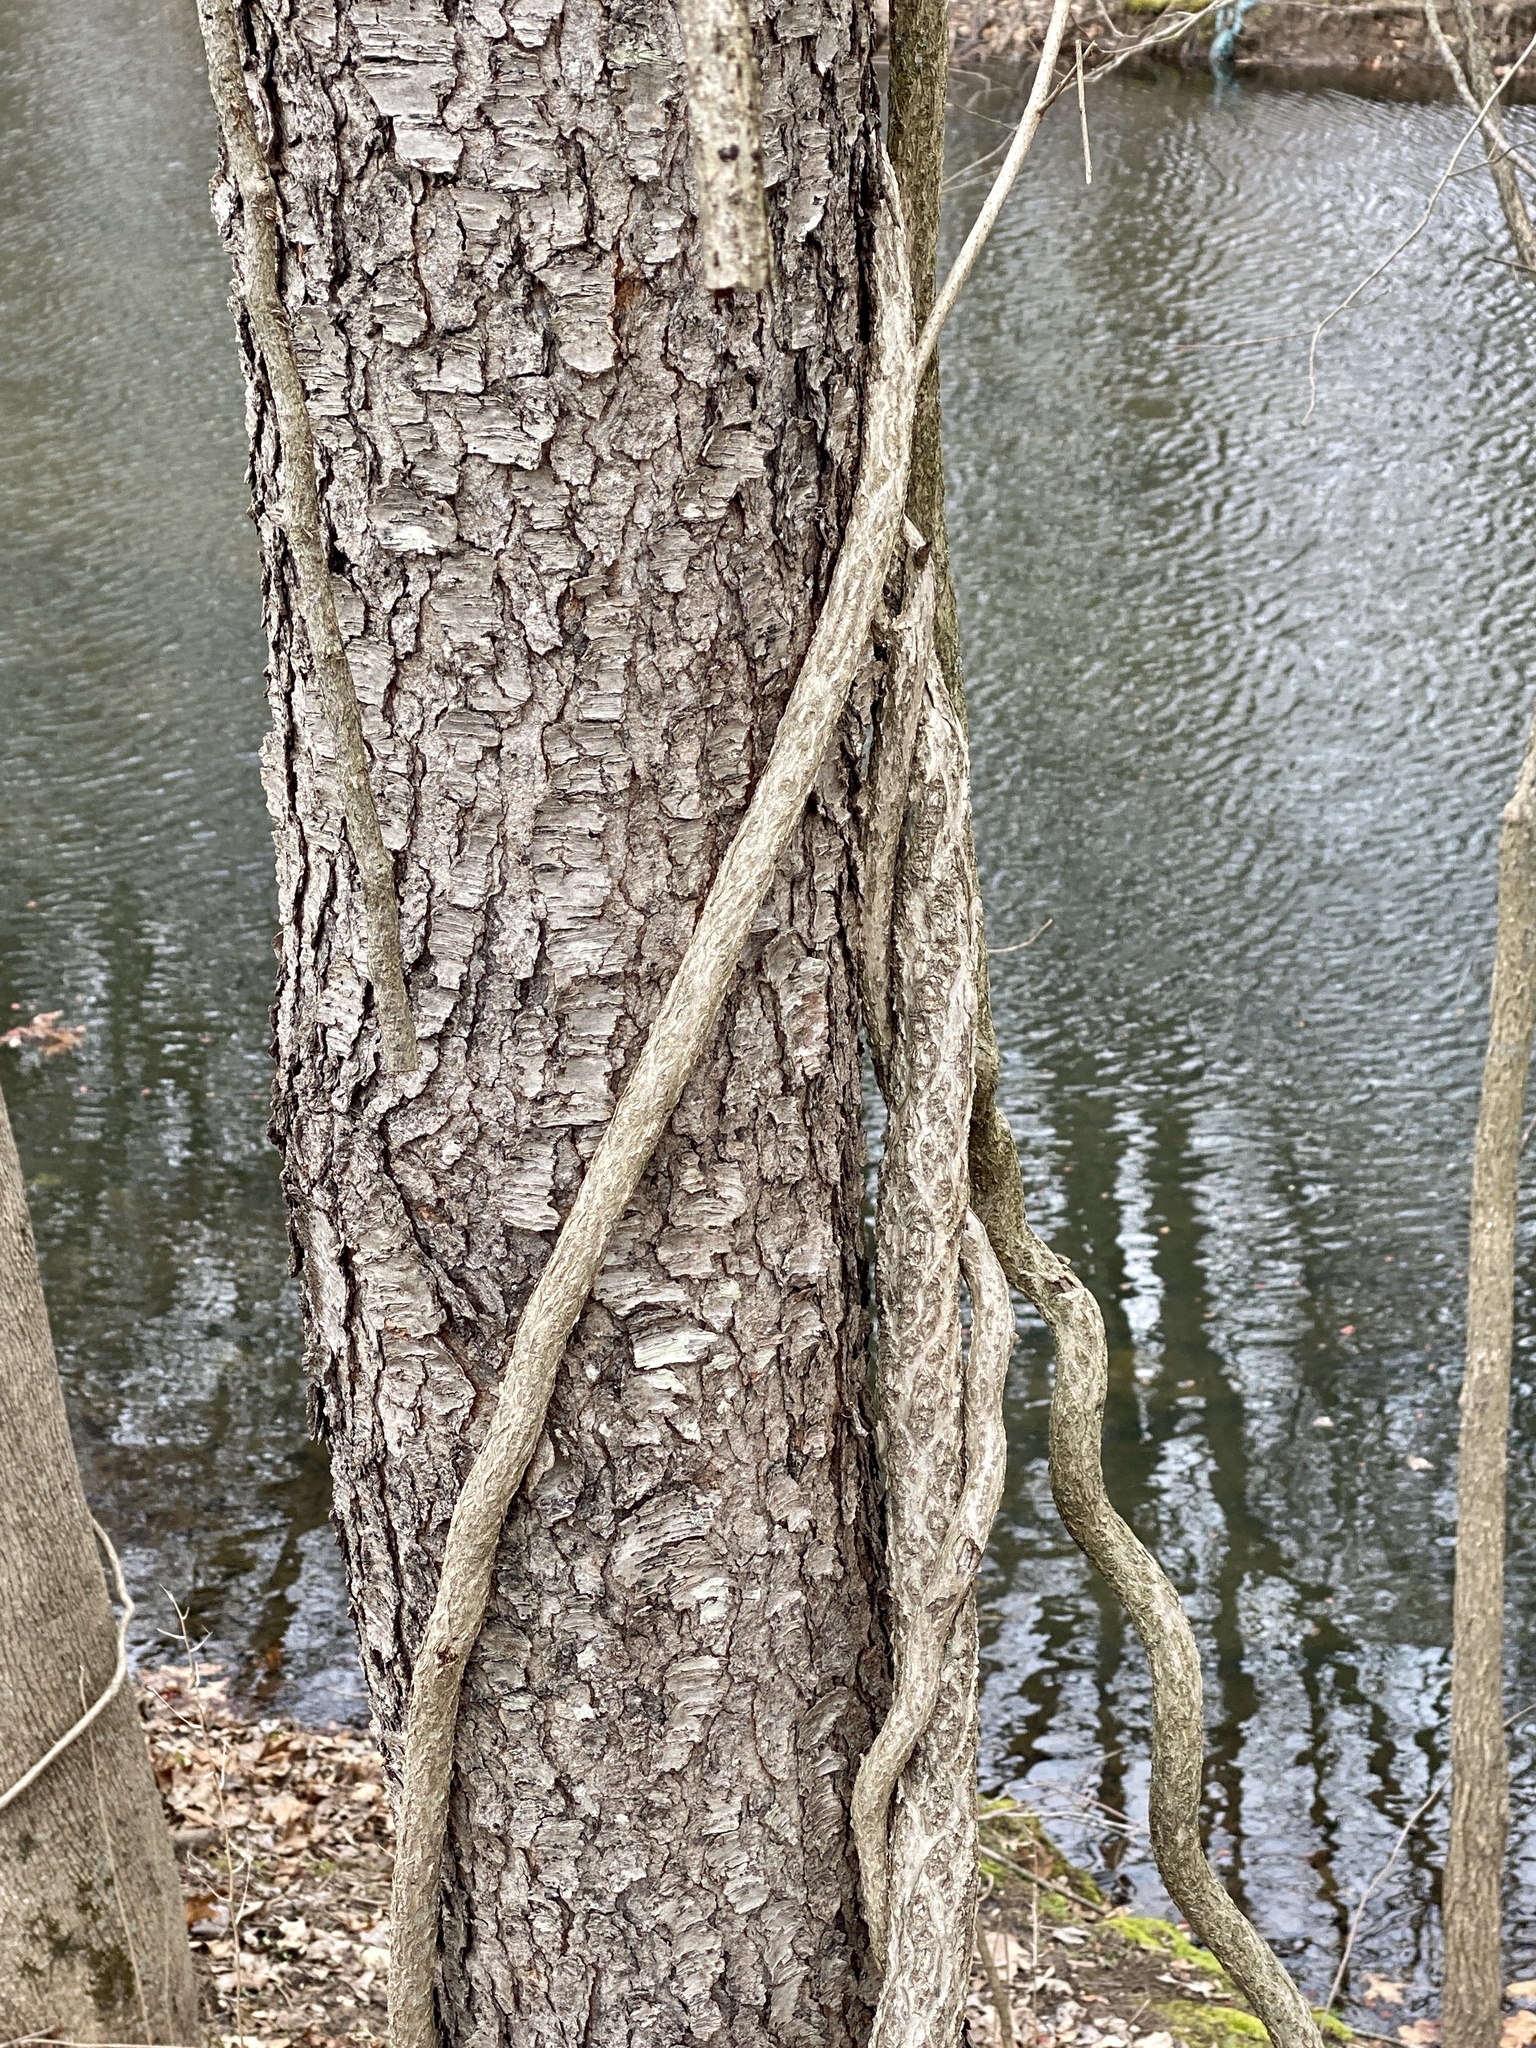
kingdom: Plantae
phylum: Tracheophyta
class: Magnoliopsida
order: Rosales
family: Rosaceae
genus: Prunus
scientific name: Prunus serotina
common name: Black cherry
